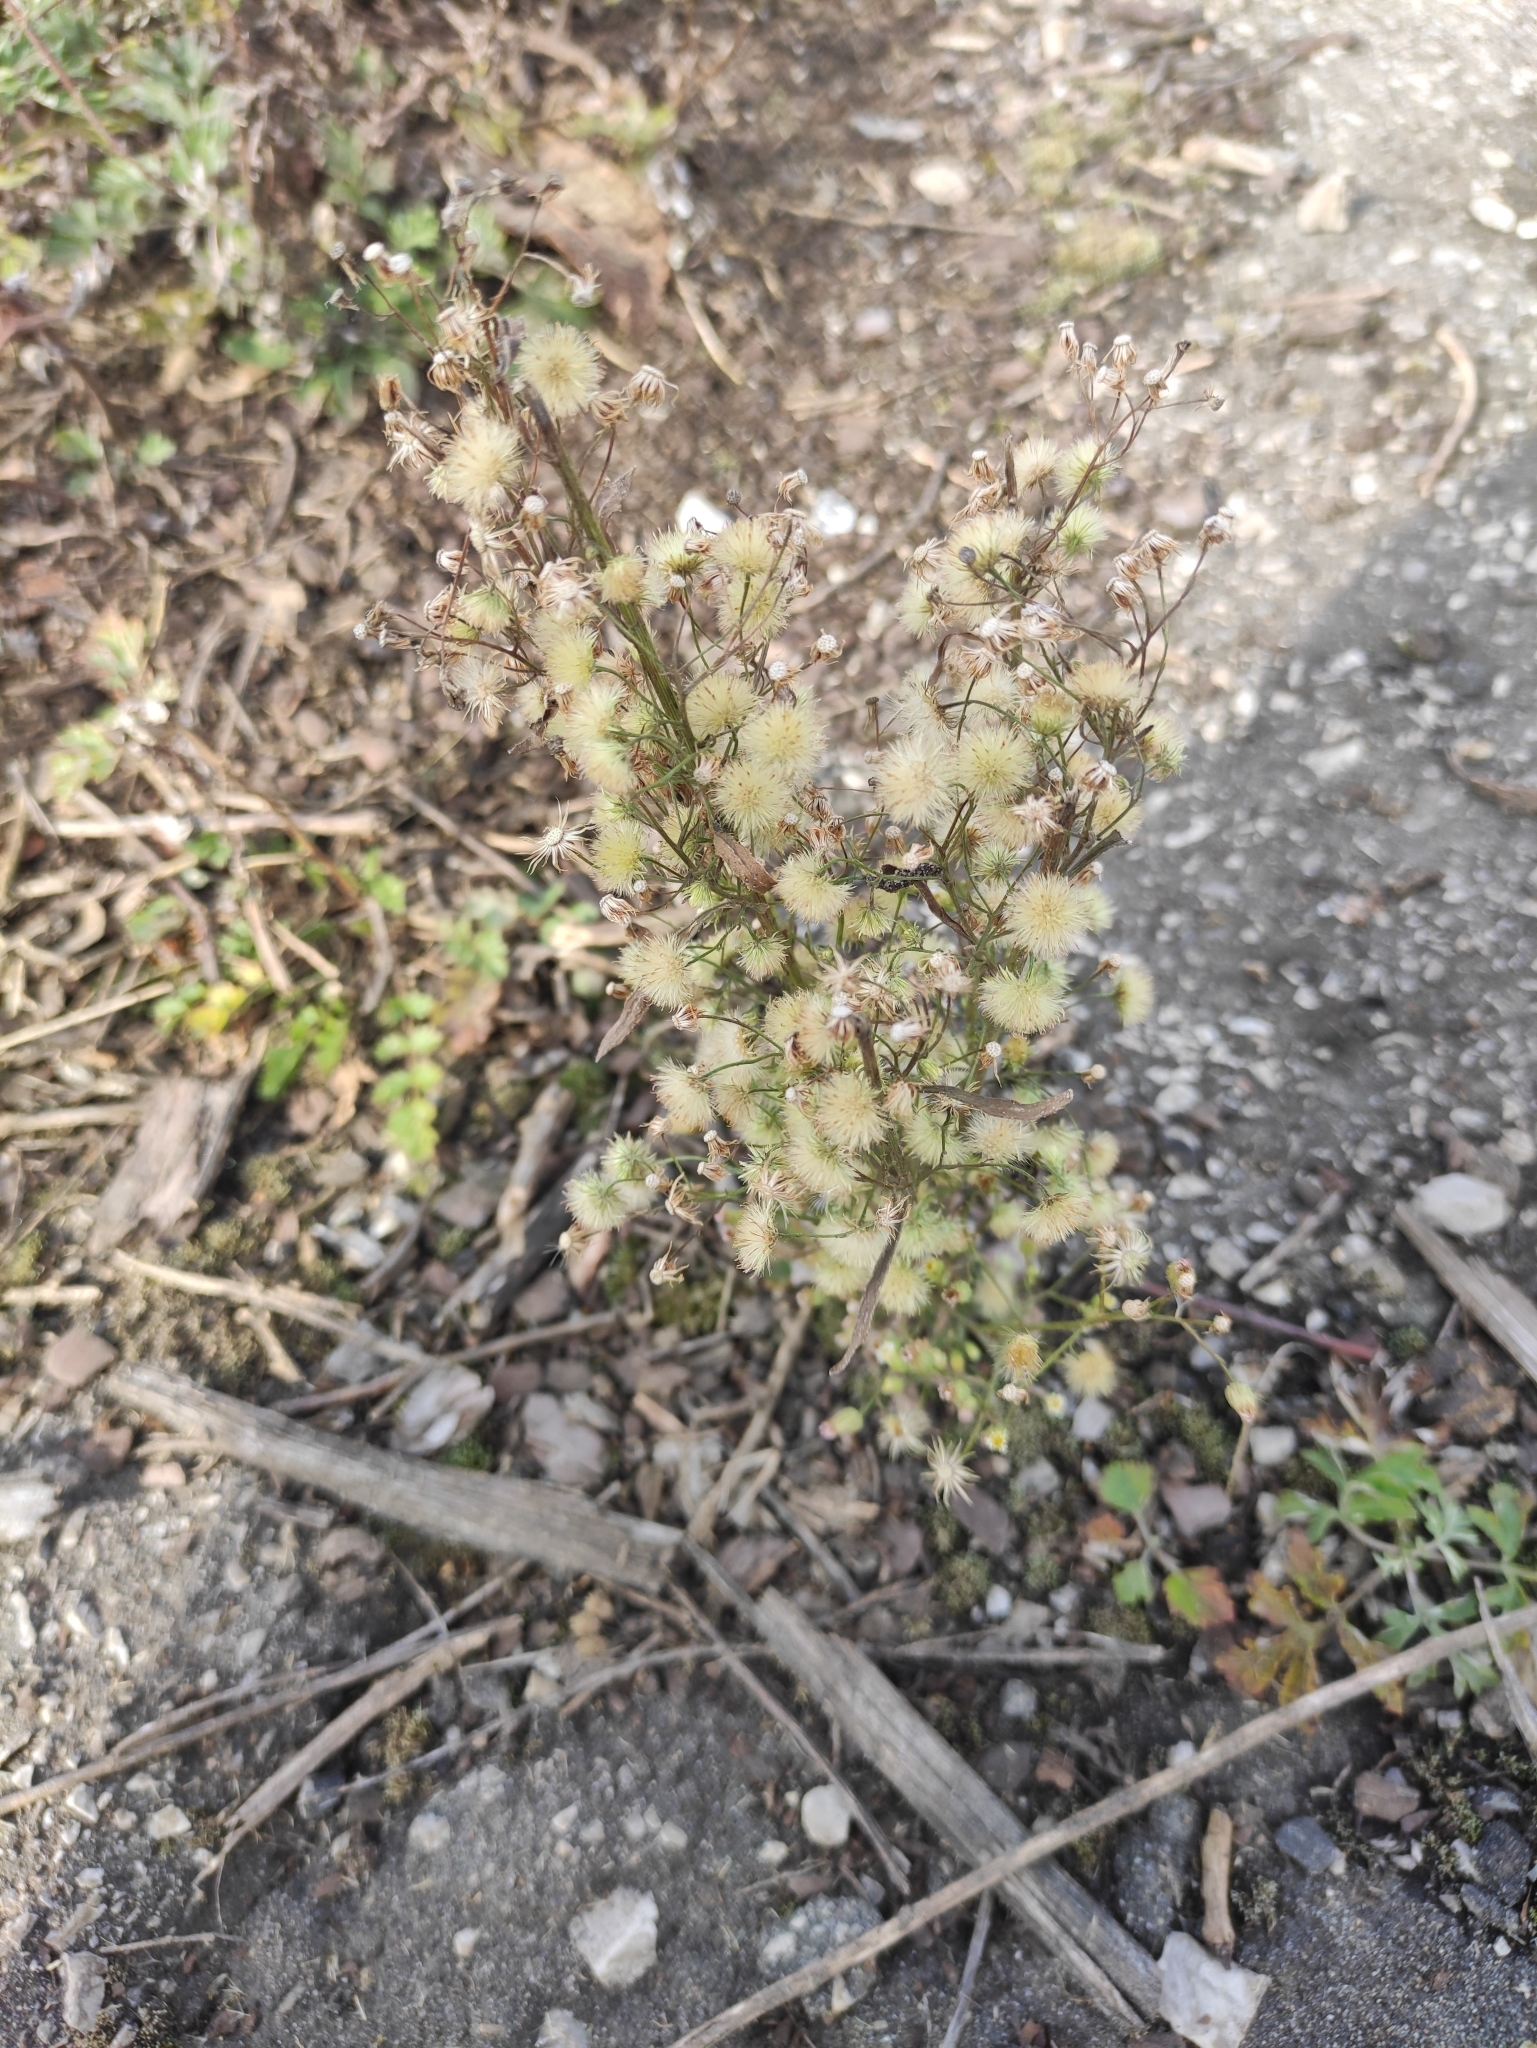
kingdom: Plantae
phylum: Tracheophyta
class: Magnoliopsida
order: Asterales
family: Asteraceae
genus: Erigeron
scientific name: Erigeron canadensis
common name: Canadian fleabane
